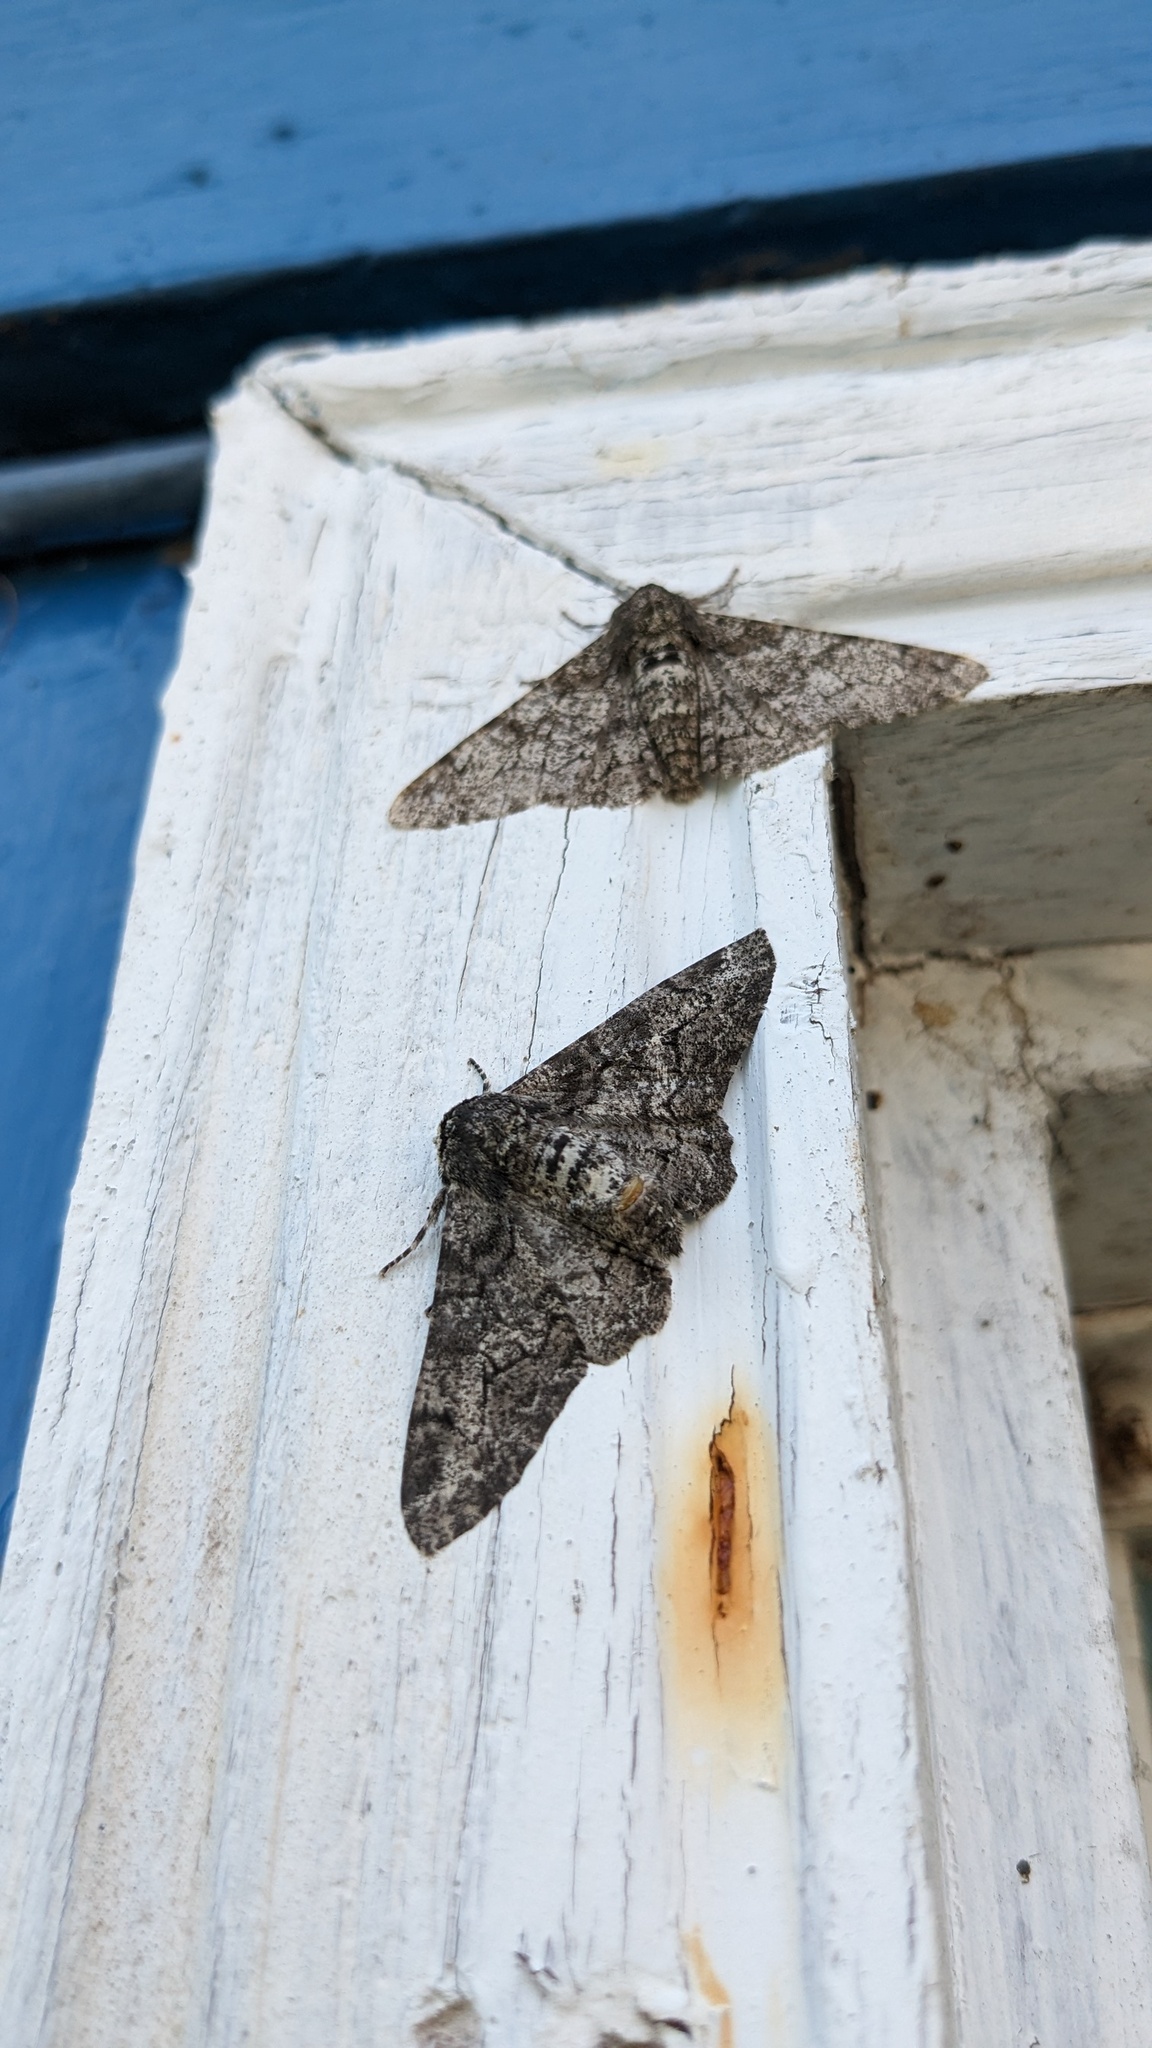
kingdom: Animalia
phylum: Arthropoda
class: Insecta
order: Lepidoptera
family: Geometridae
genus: Biston
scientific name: Biston betularia
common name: Peppered moth
